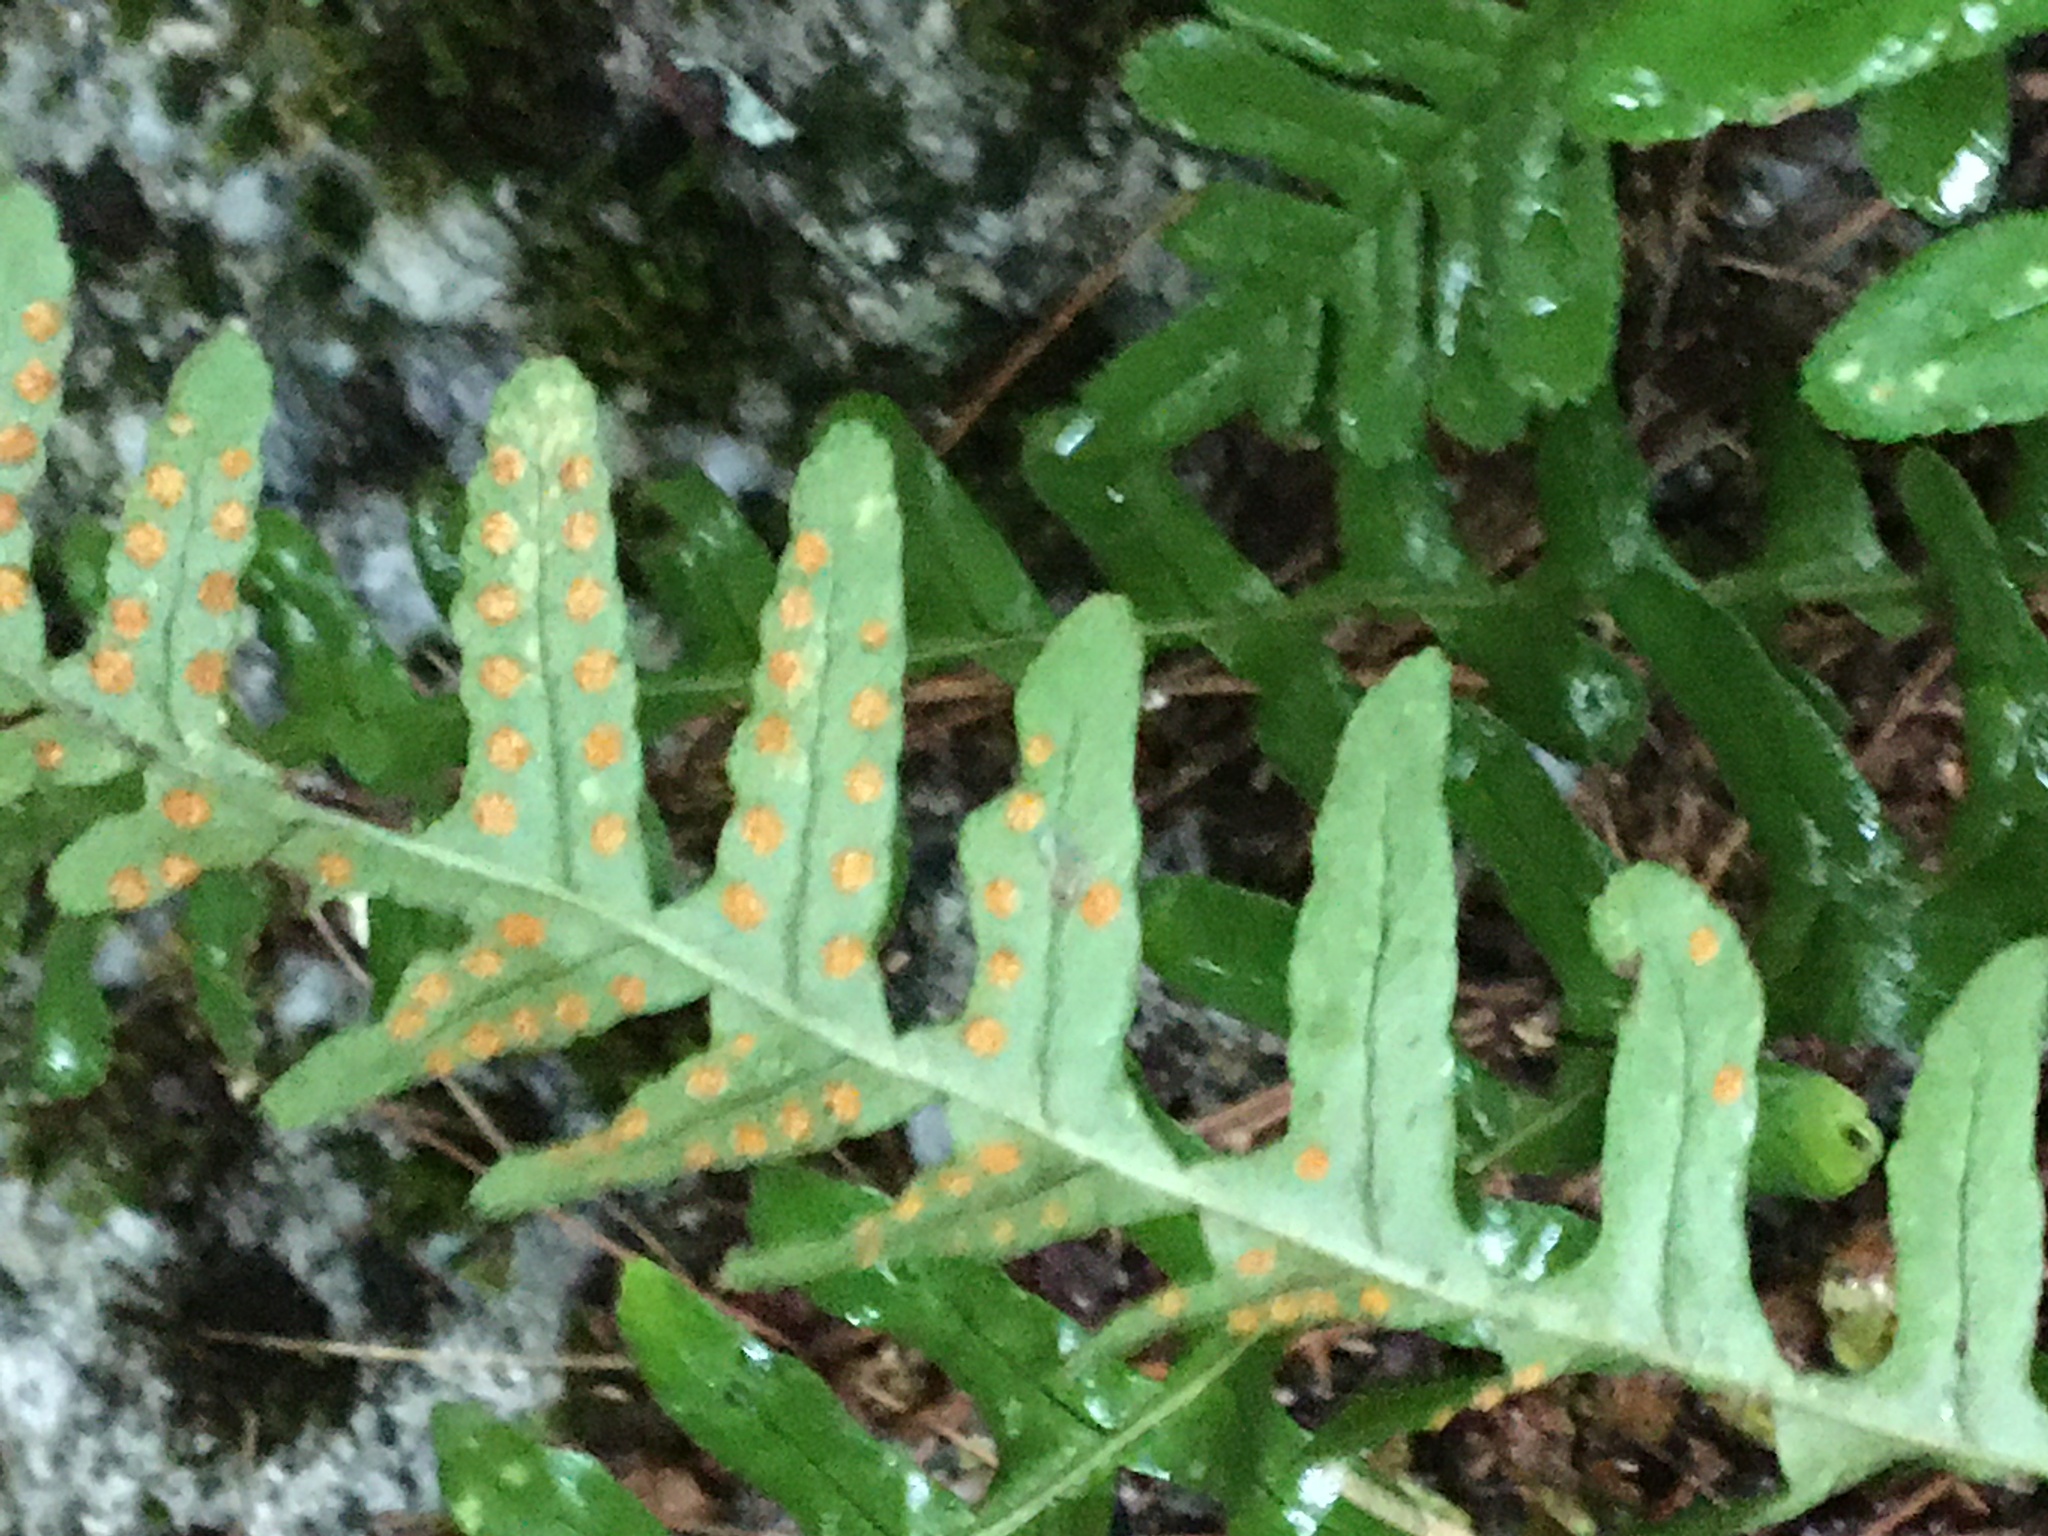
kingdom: Plantae
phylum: Tracheophyta
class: Polypodiopsida
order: Polypodiales
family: Polypodiaceae
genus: Polypodium
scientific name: Polypodium virginianum
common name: American wall fern
